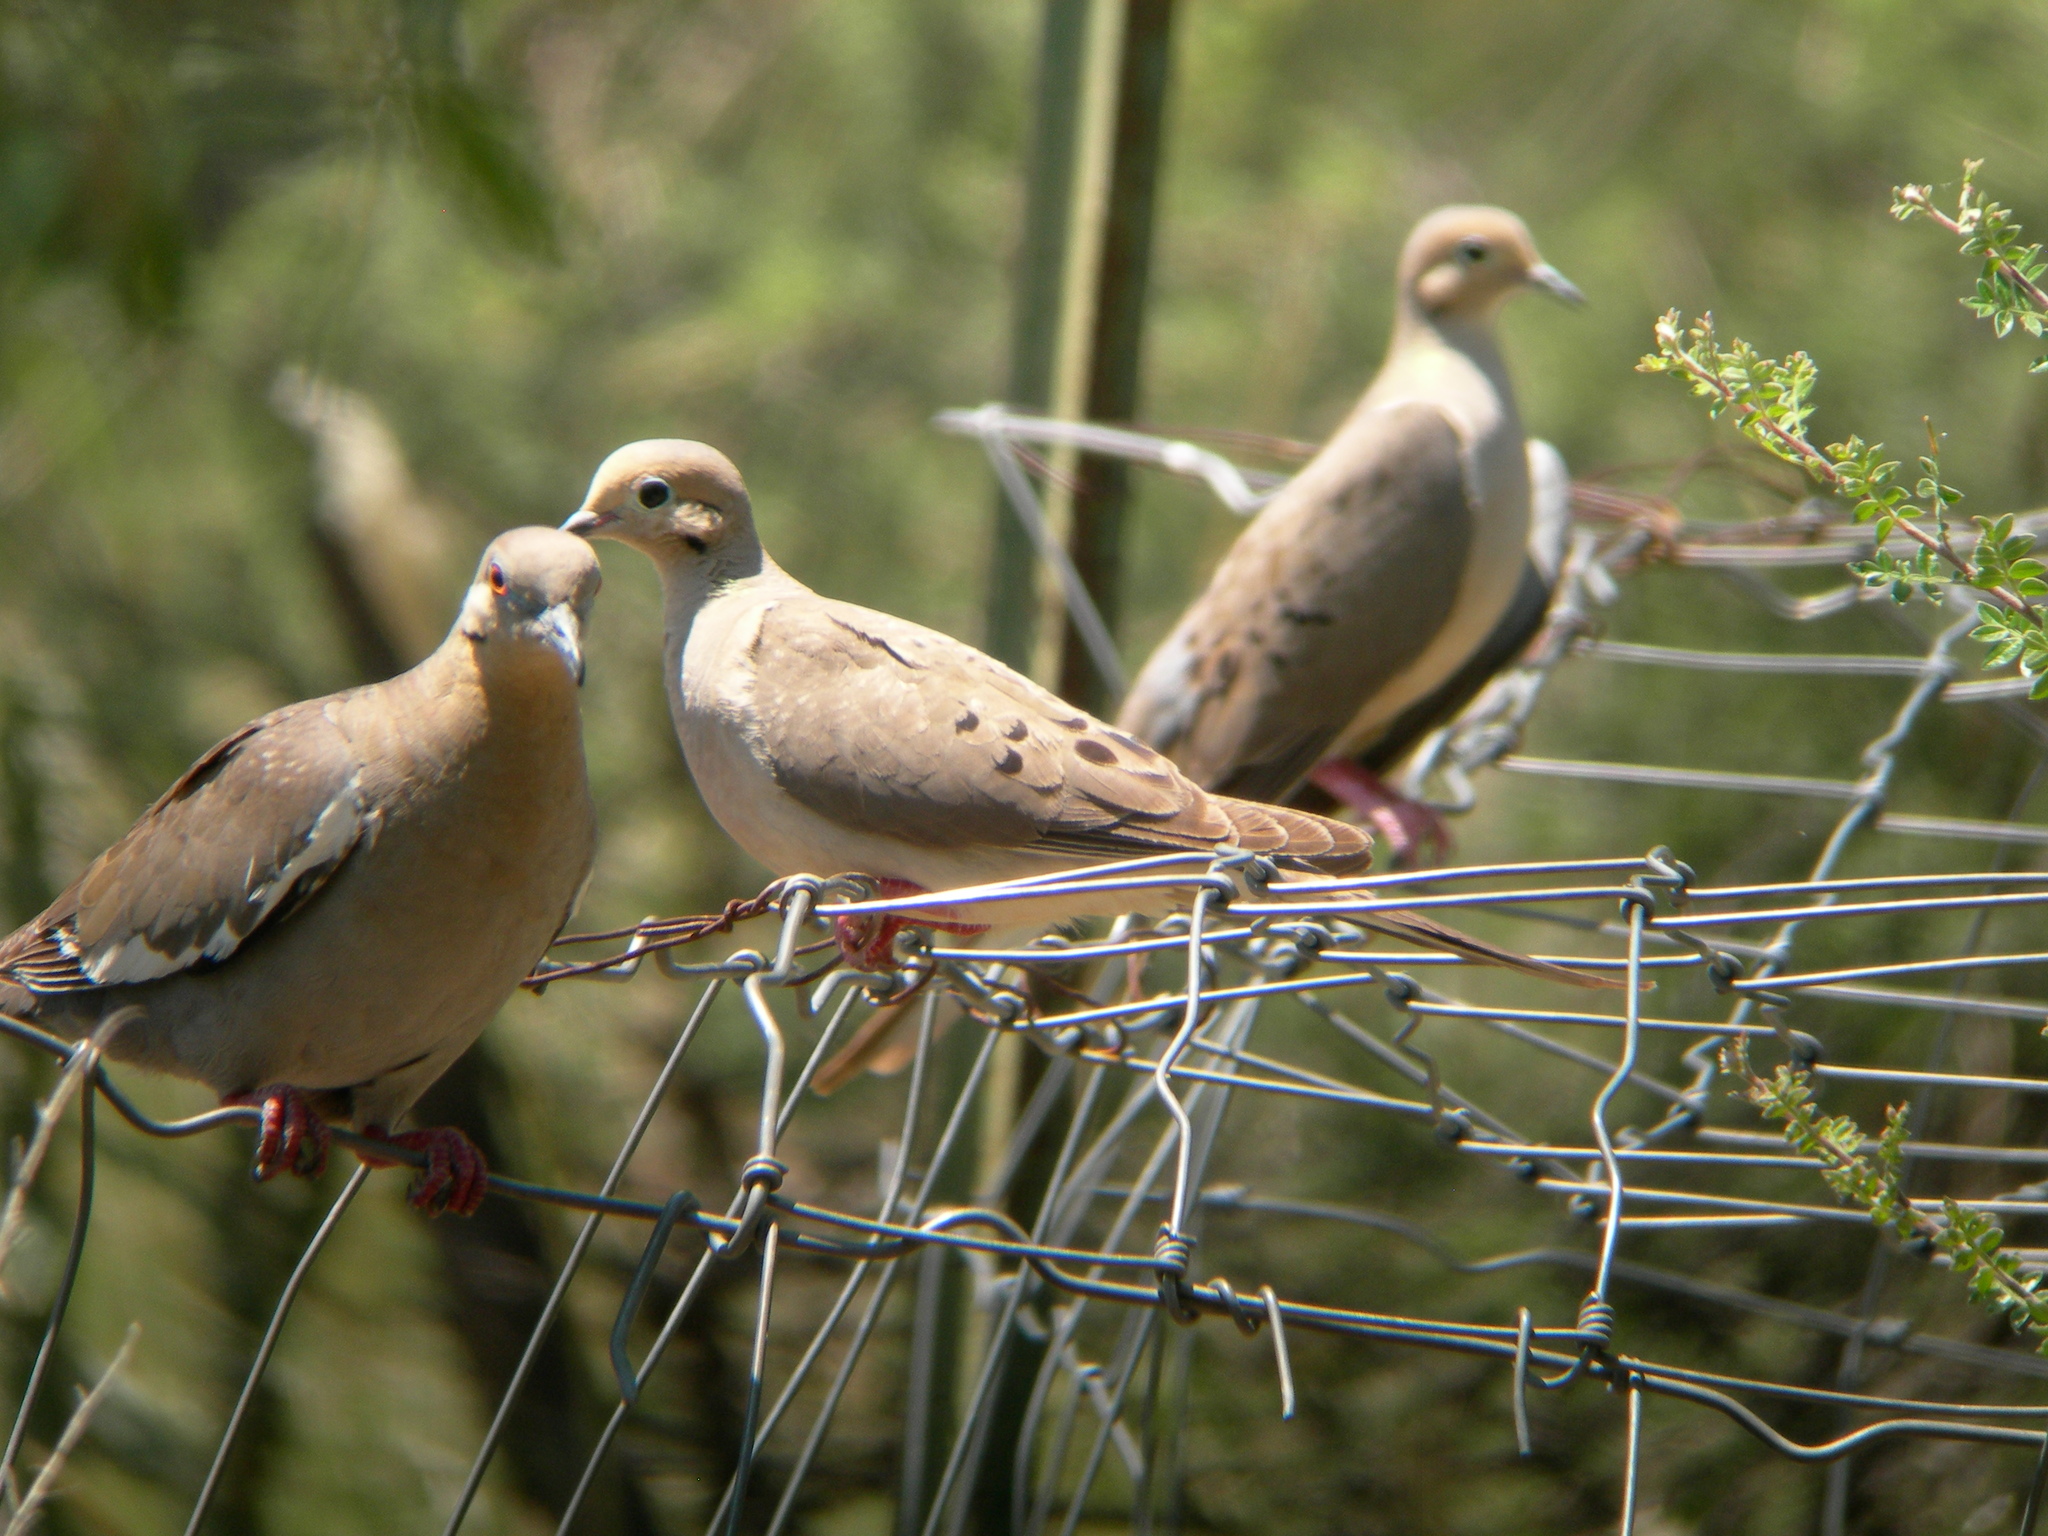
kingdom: Animalia
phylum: Chordata
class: Aves
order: Columbiformes
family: Columbidae
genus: Zenaida
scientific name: Zenaida macroura
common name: Mourning dove
